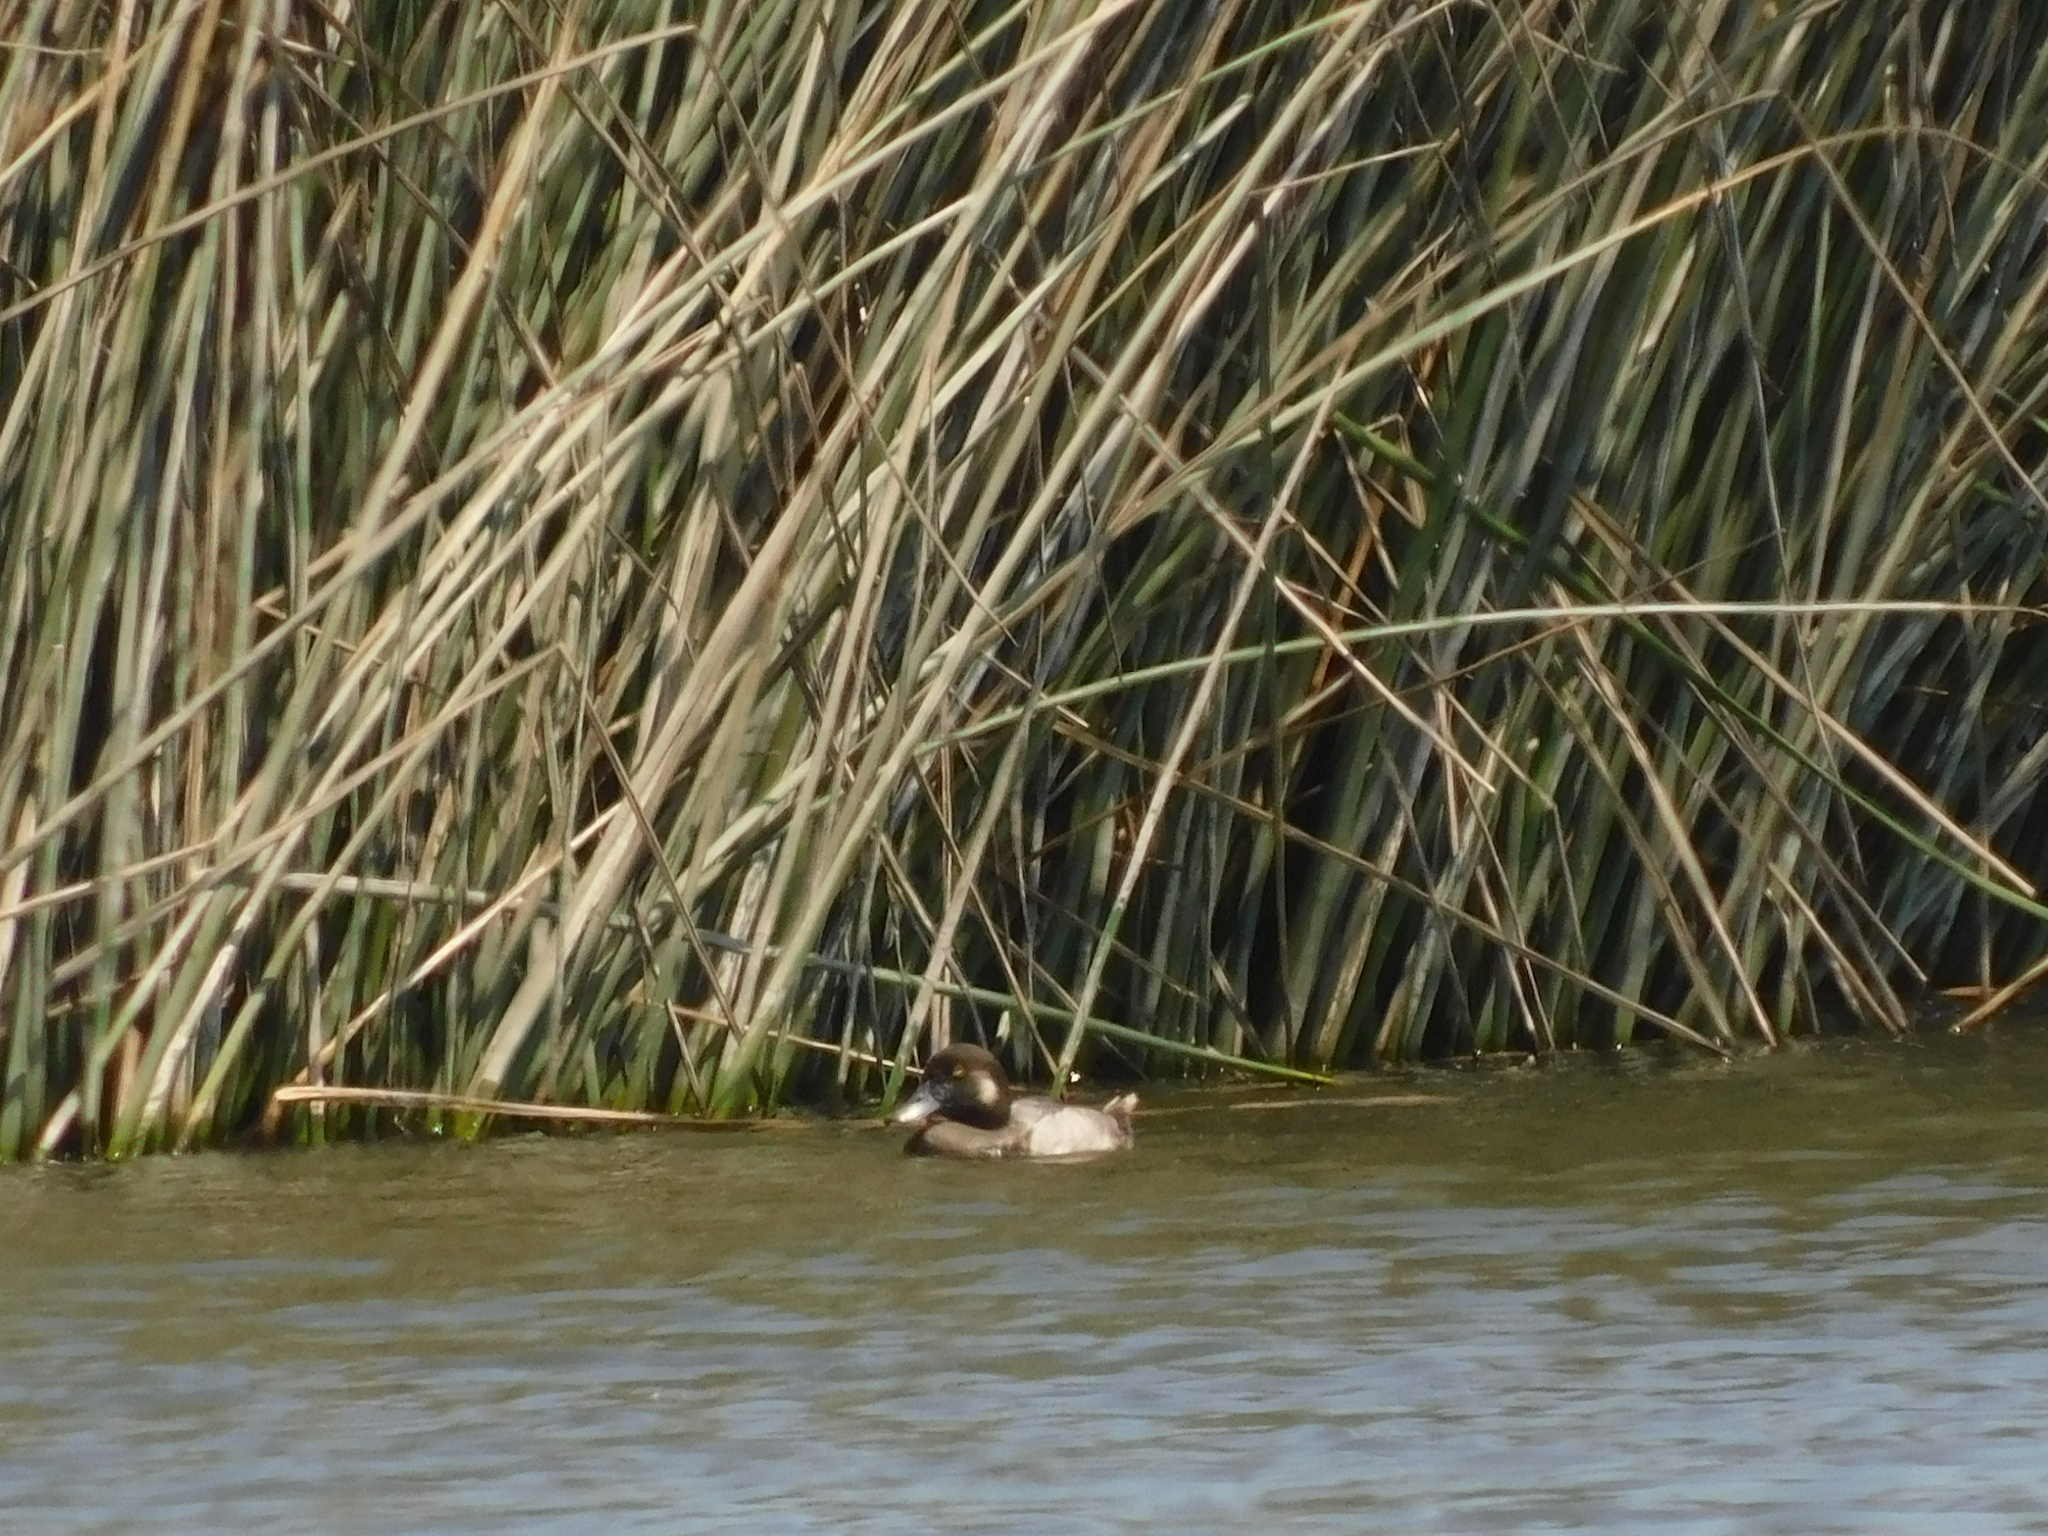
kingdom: Animalia
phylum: Chordata
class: Aves
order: Anseriformes
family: Anatidae
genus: Bucephala
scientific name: Bucephala albeola
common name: Bufflehead
